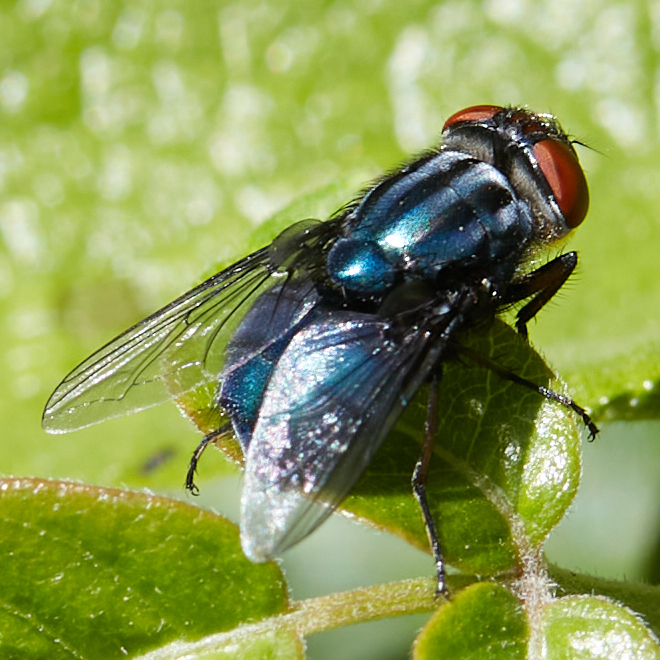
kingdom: Animalia
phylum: Arthropoda
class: Insecta
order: Diptera
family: Calliphoridae
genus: Compsomyiops
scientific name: Compsomyiops callipes
